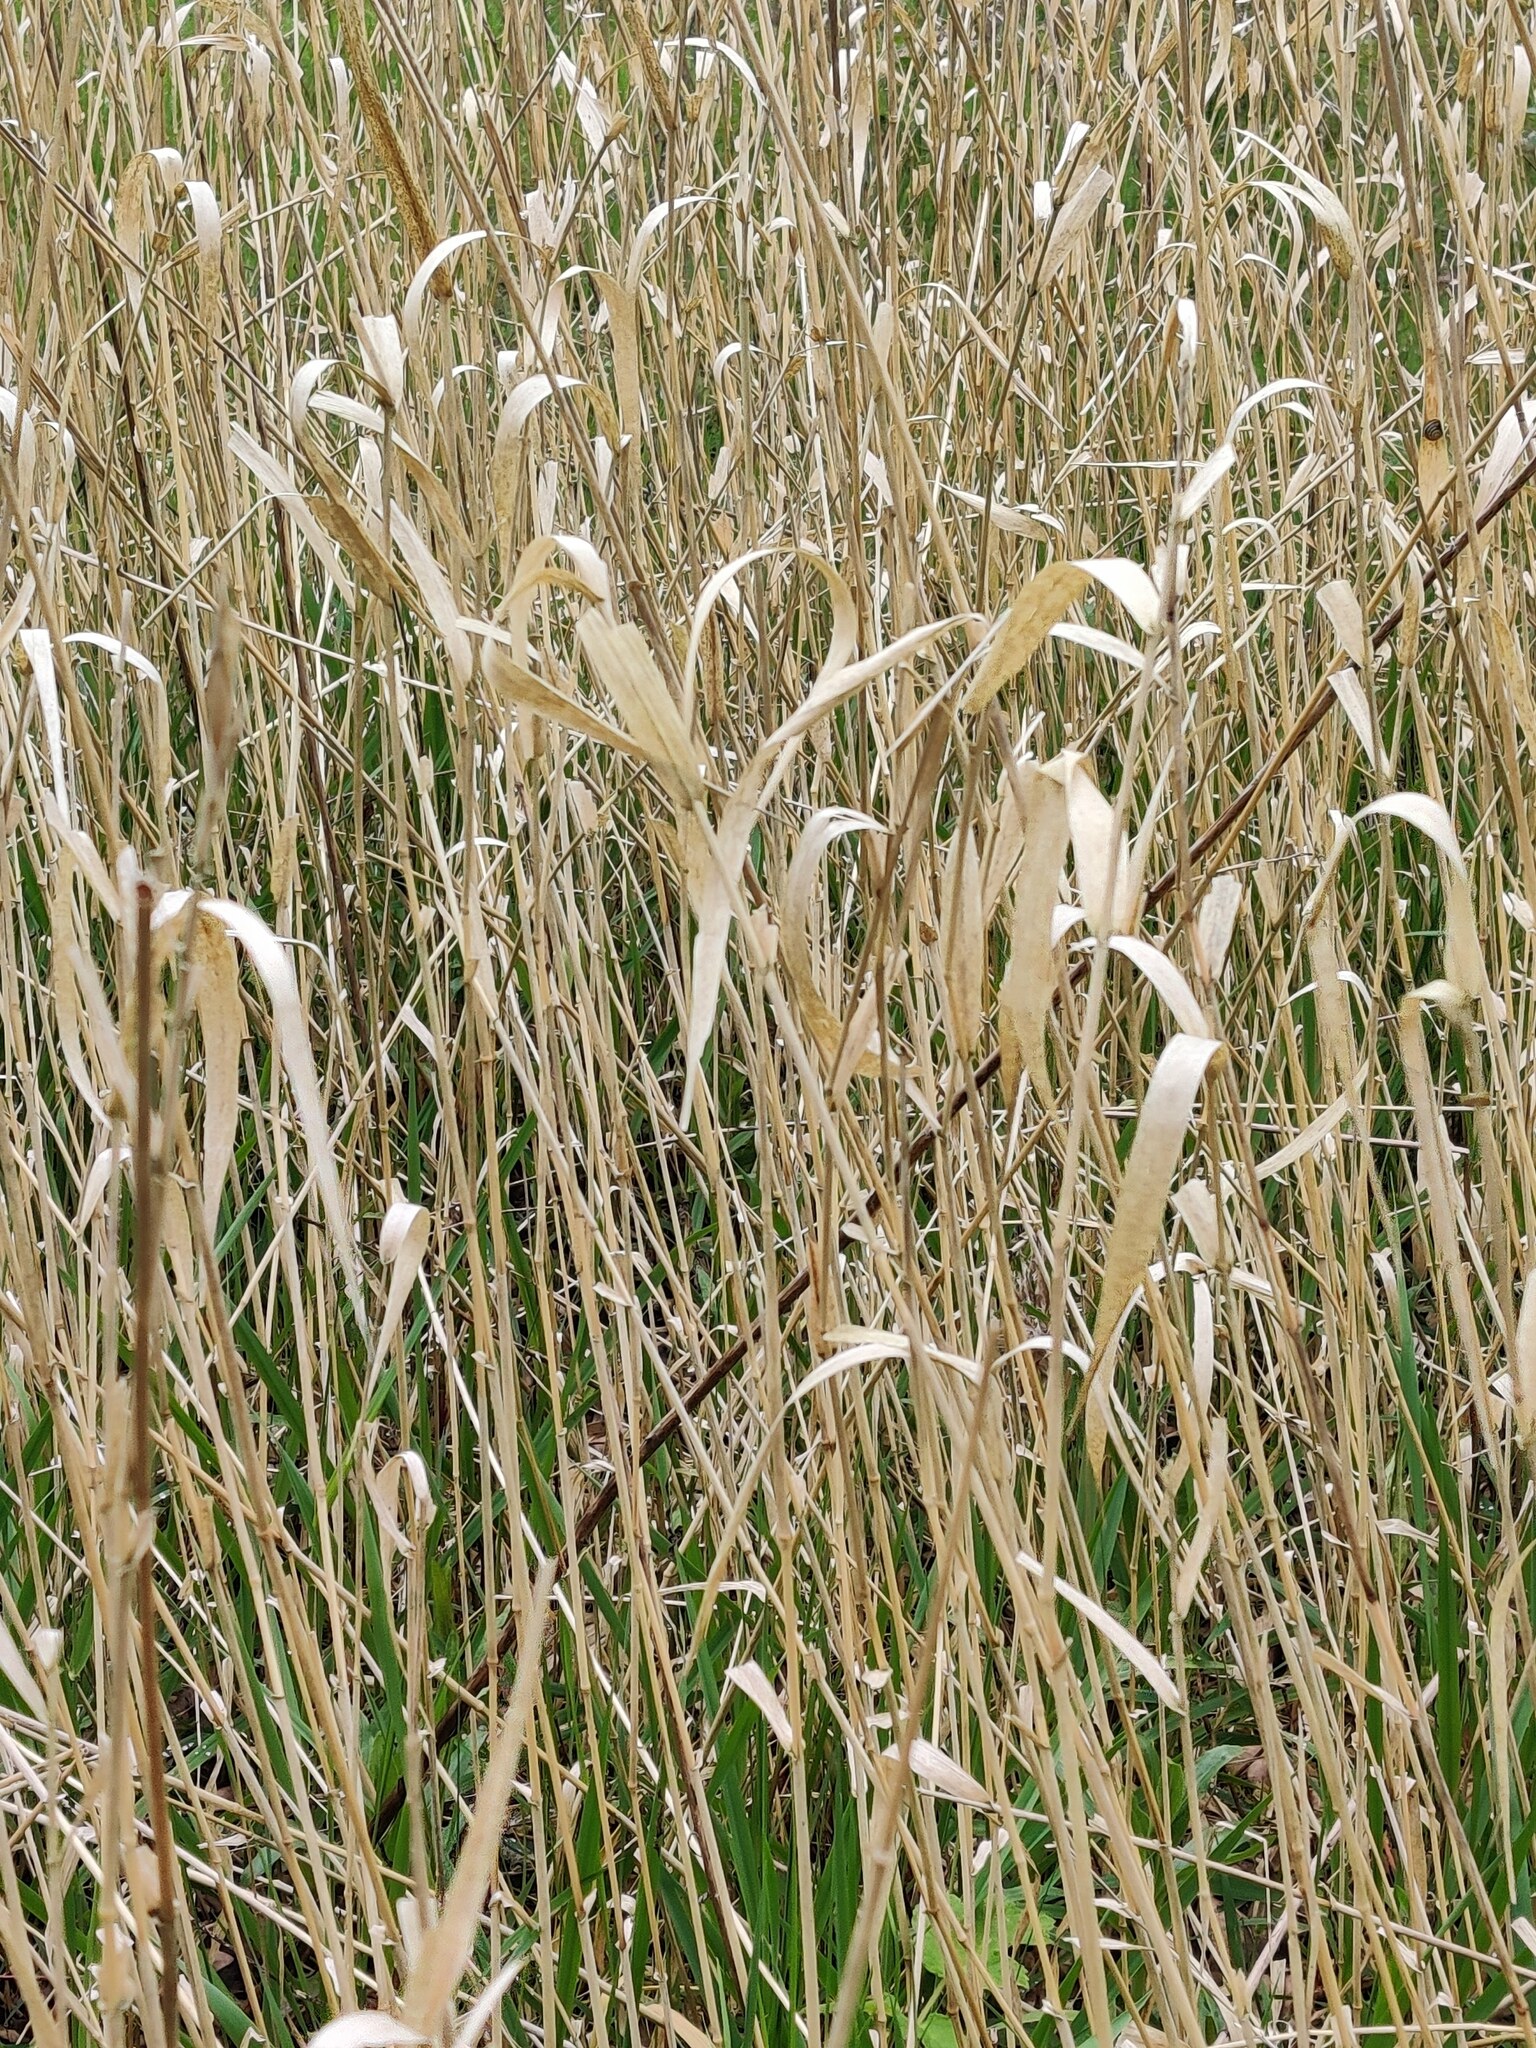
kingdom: Plantae
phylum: Tracheophyta
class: Liliopsida
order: Poales
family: Poaceae
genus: Phragmites
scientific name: Phragmites australis
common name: Common reed
